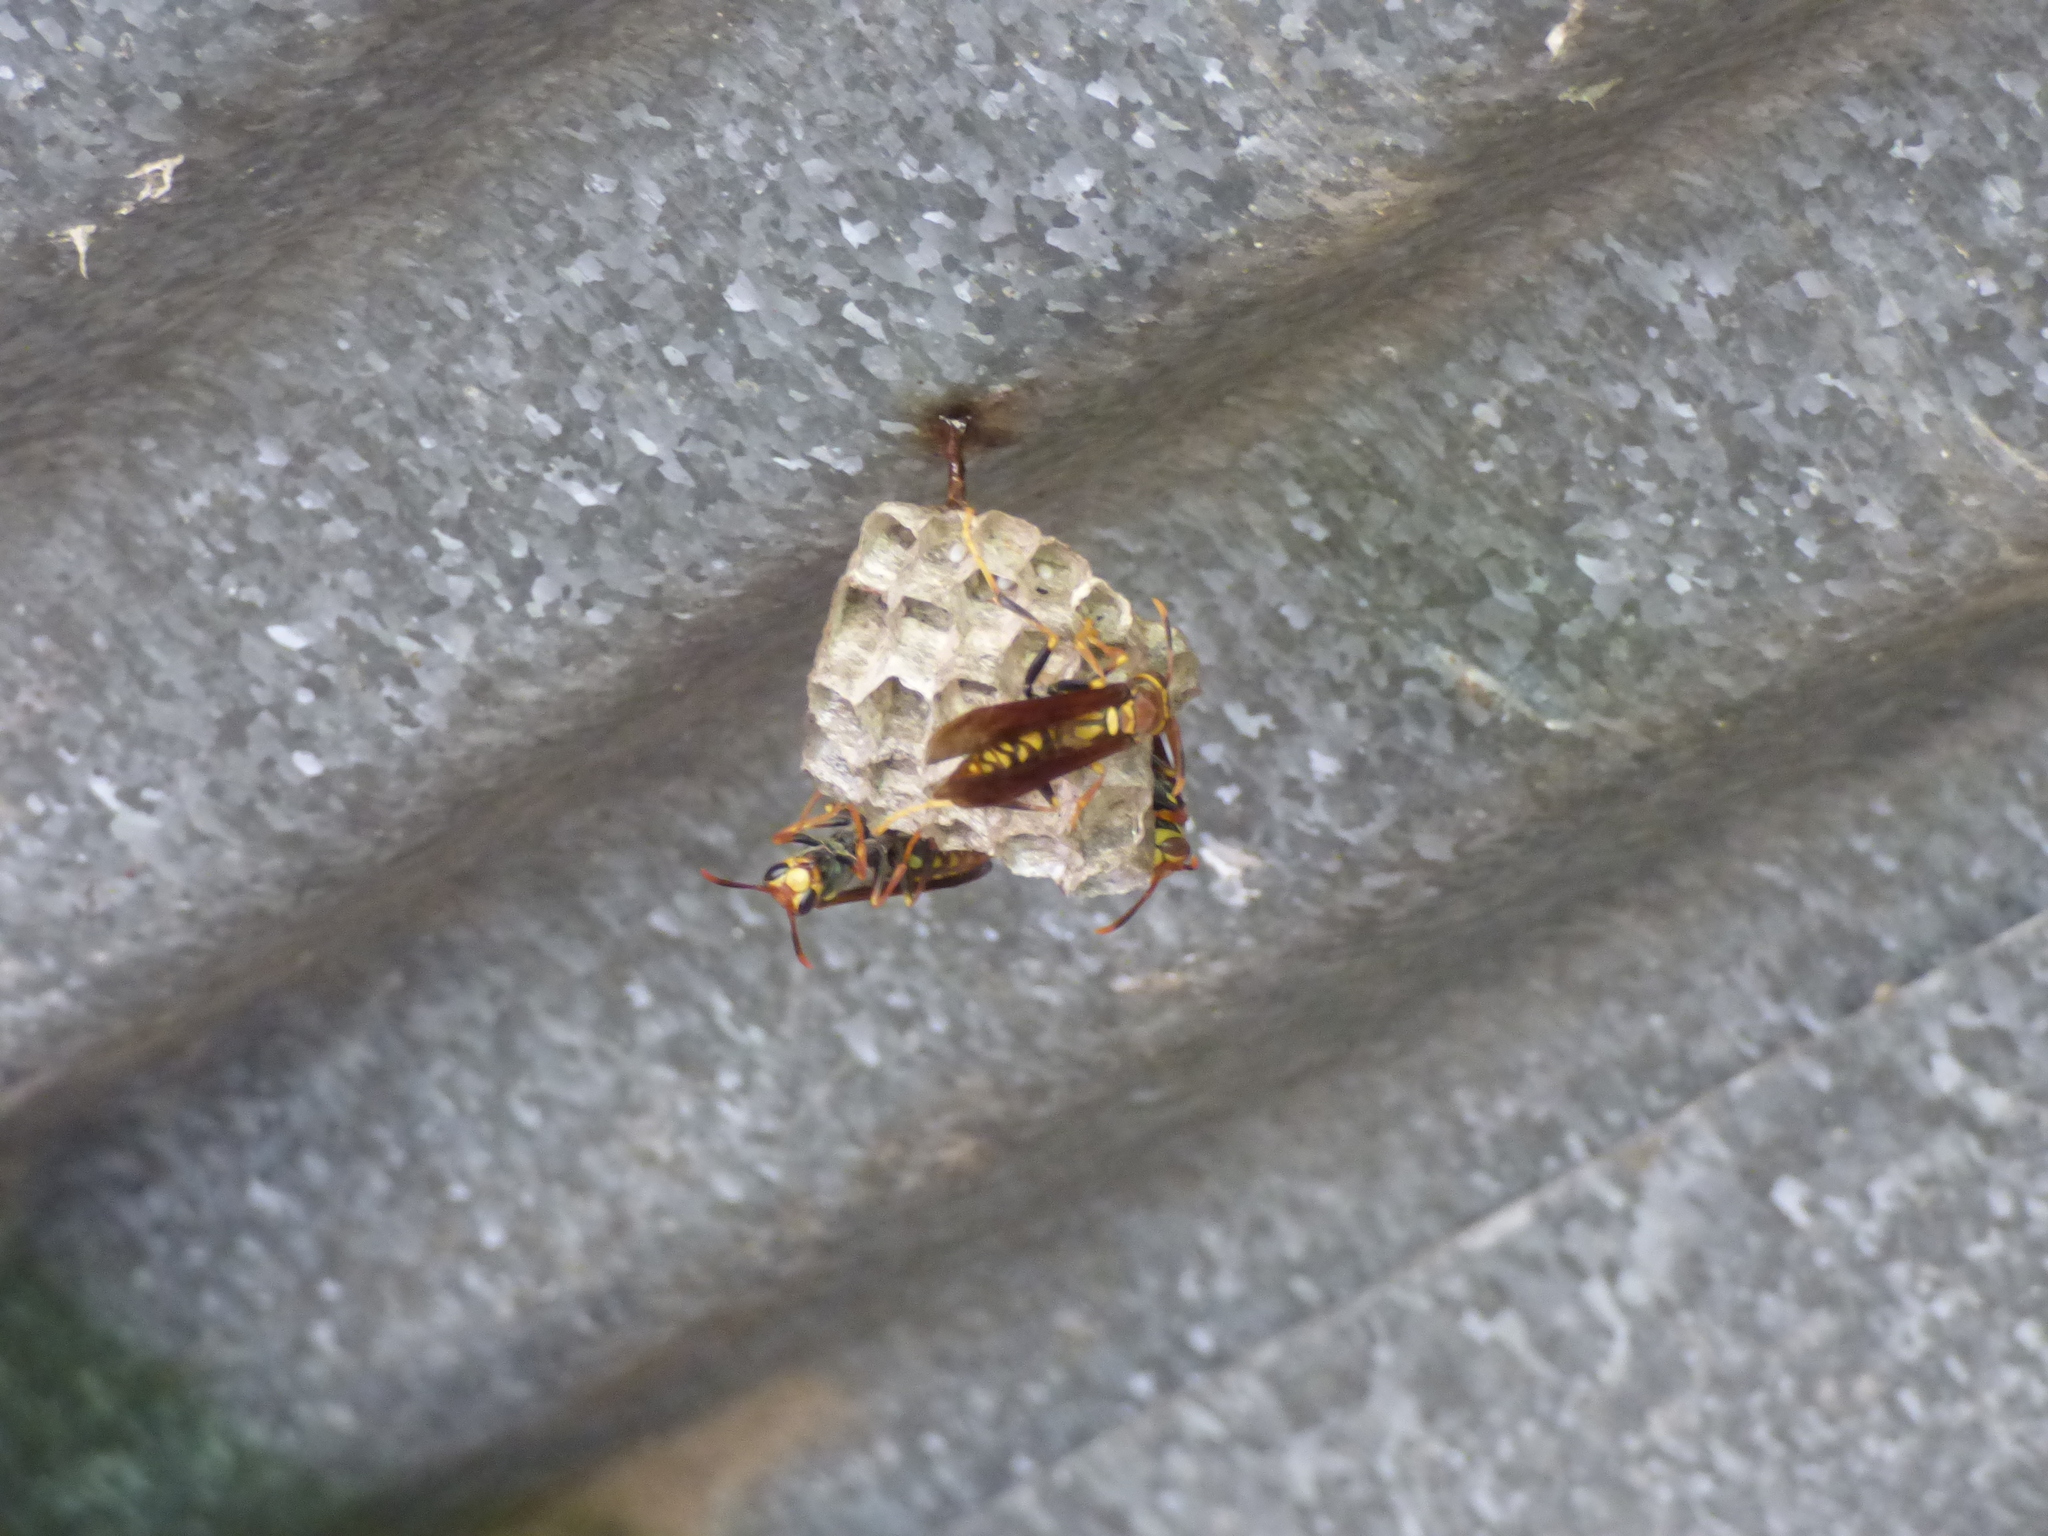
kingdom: Animalia
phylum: Arthropoda
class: Insecta
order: Hymenoptera
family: Eumenidae
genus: Polistes
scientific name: Polistes versicolor
